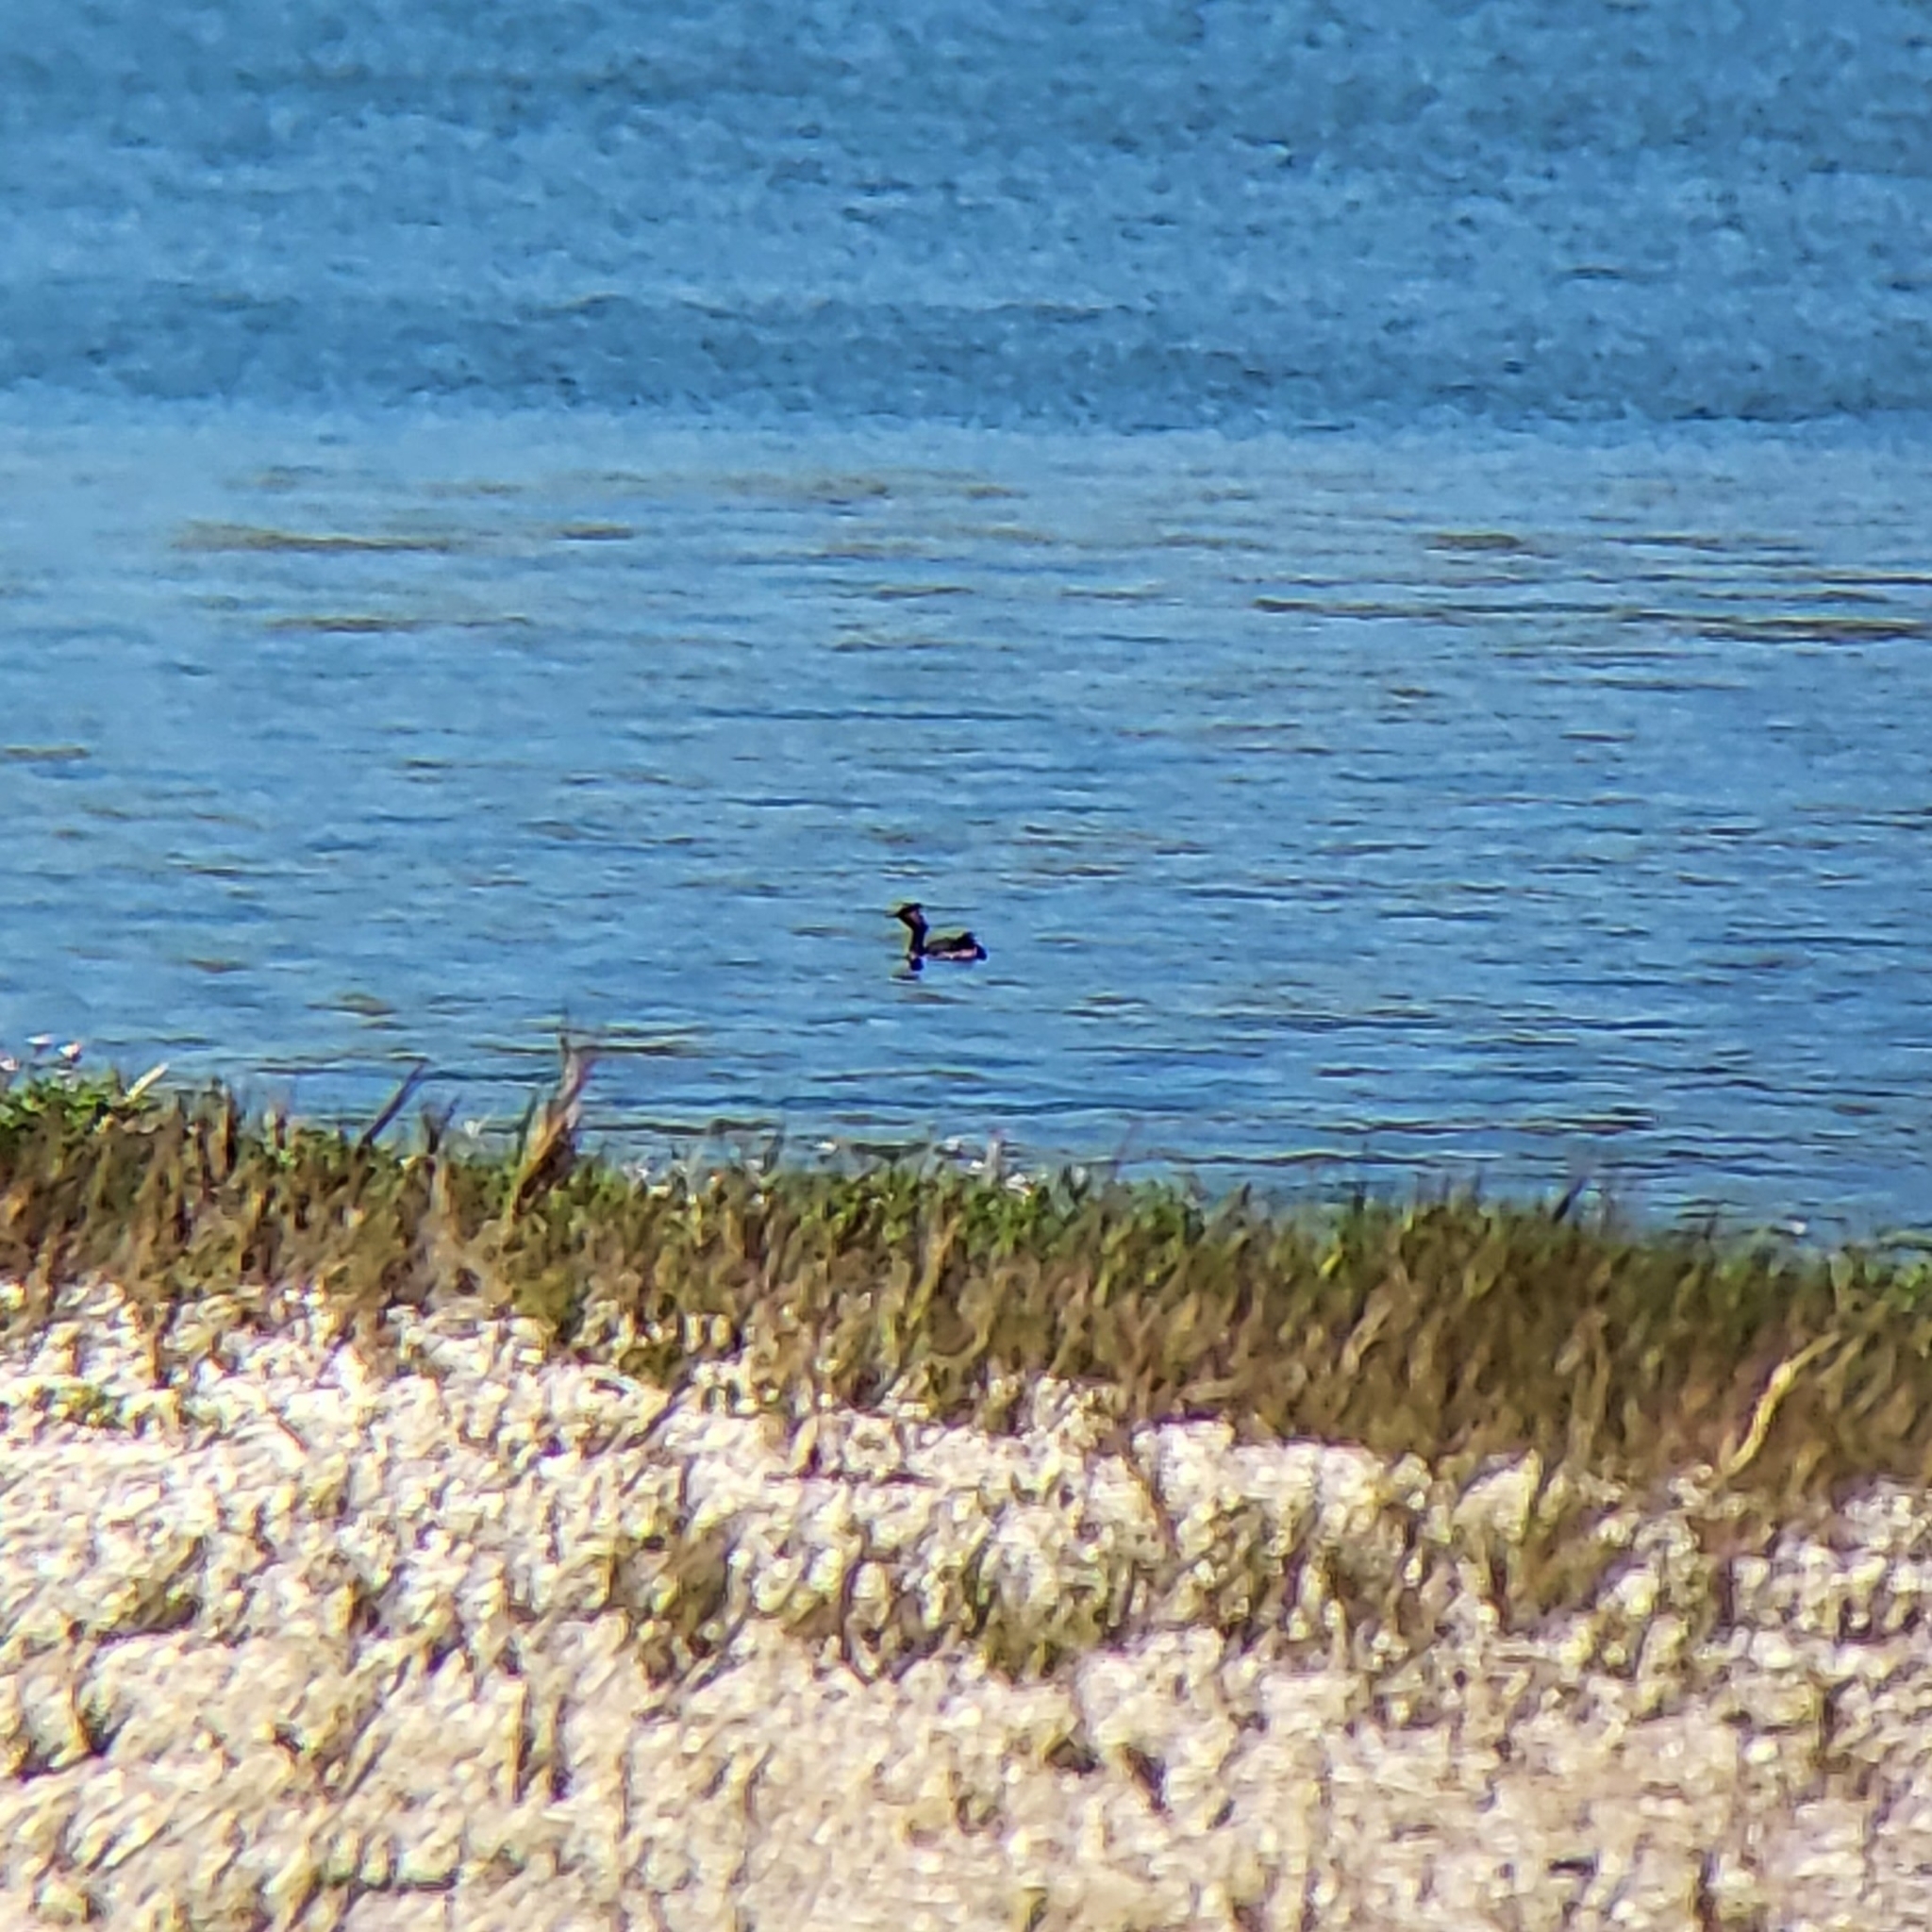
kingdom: Animalia
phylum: Chordata
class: Aves
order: Podicipediformes
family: Podicipedidae
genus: Podiceps
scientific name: Podiceps nigricollis
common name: Black-necked grebe
